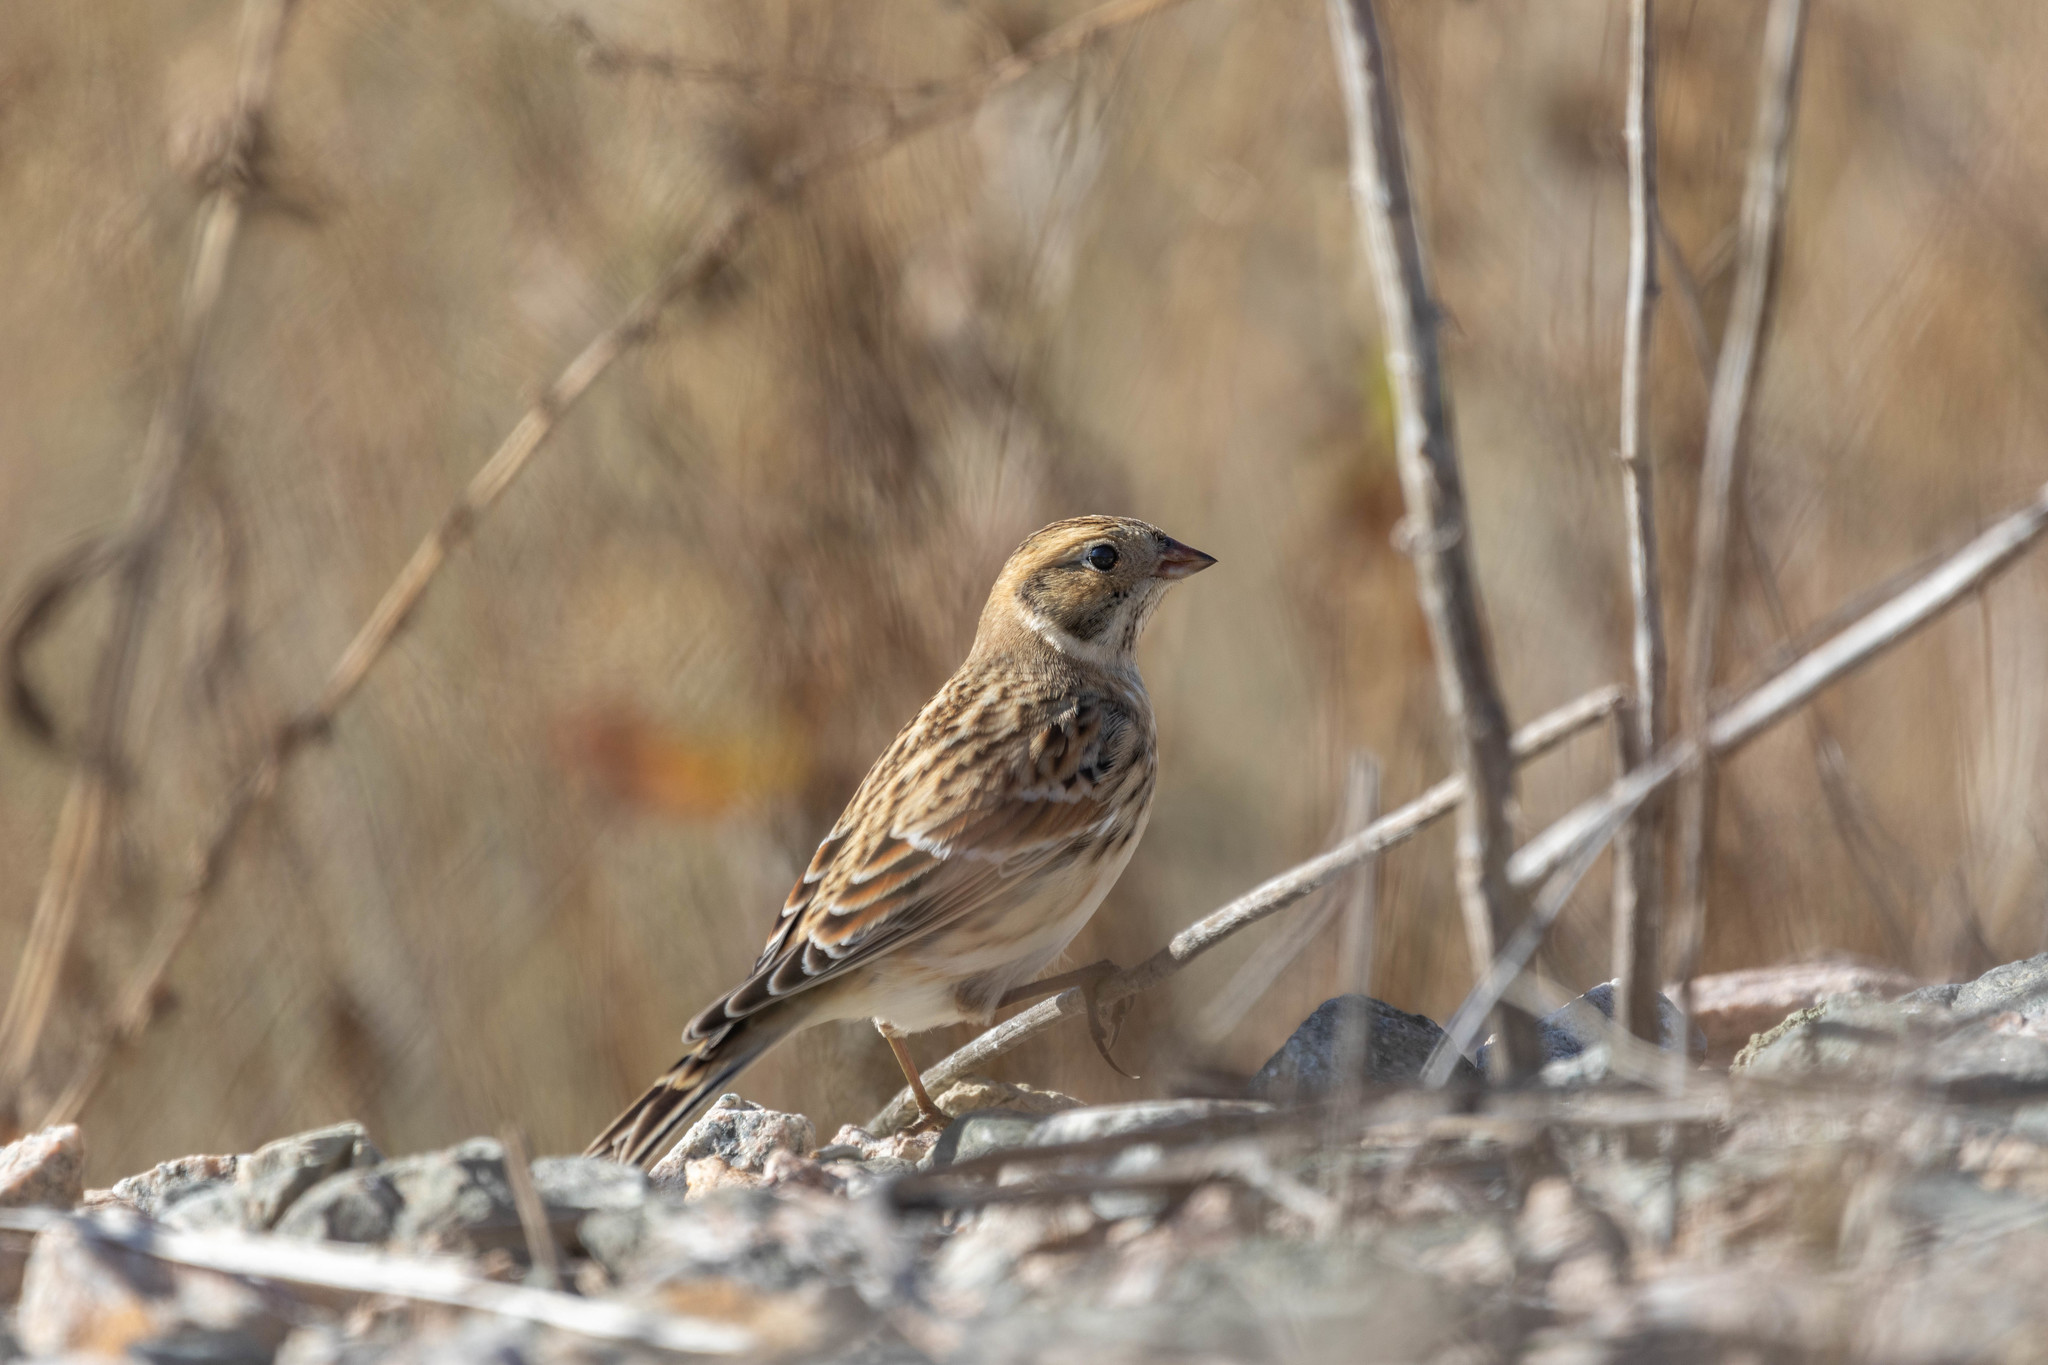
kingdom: Animalia
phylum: Chordata
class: Aves
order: Passeriformes
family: Calcariidae
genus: Calcarius
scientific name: Calcarius lapponicus
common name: Lapland longspur
